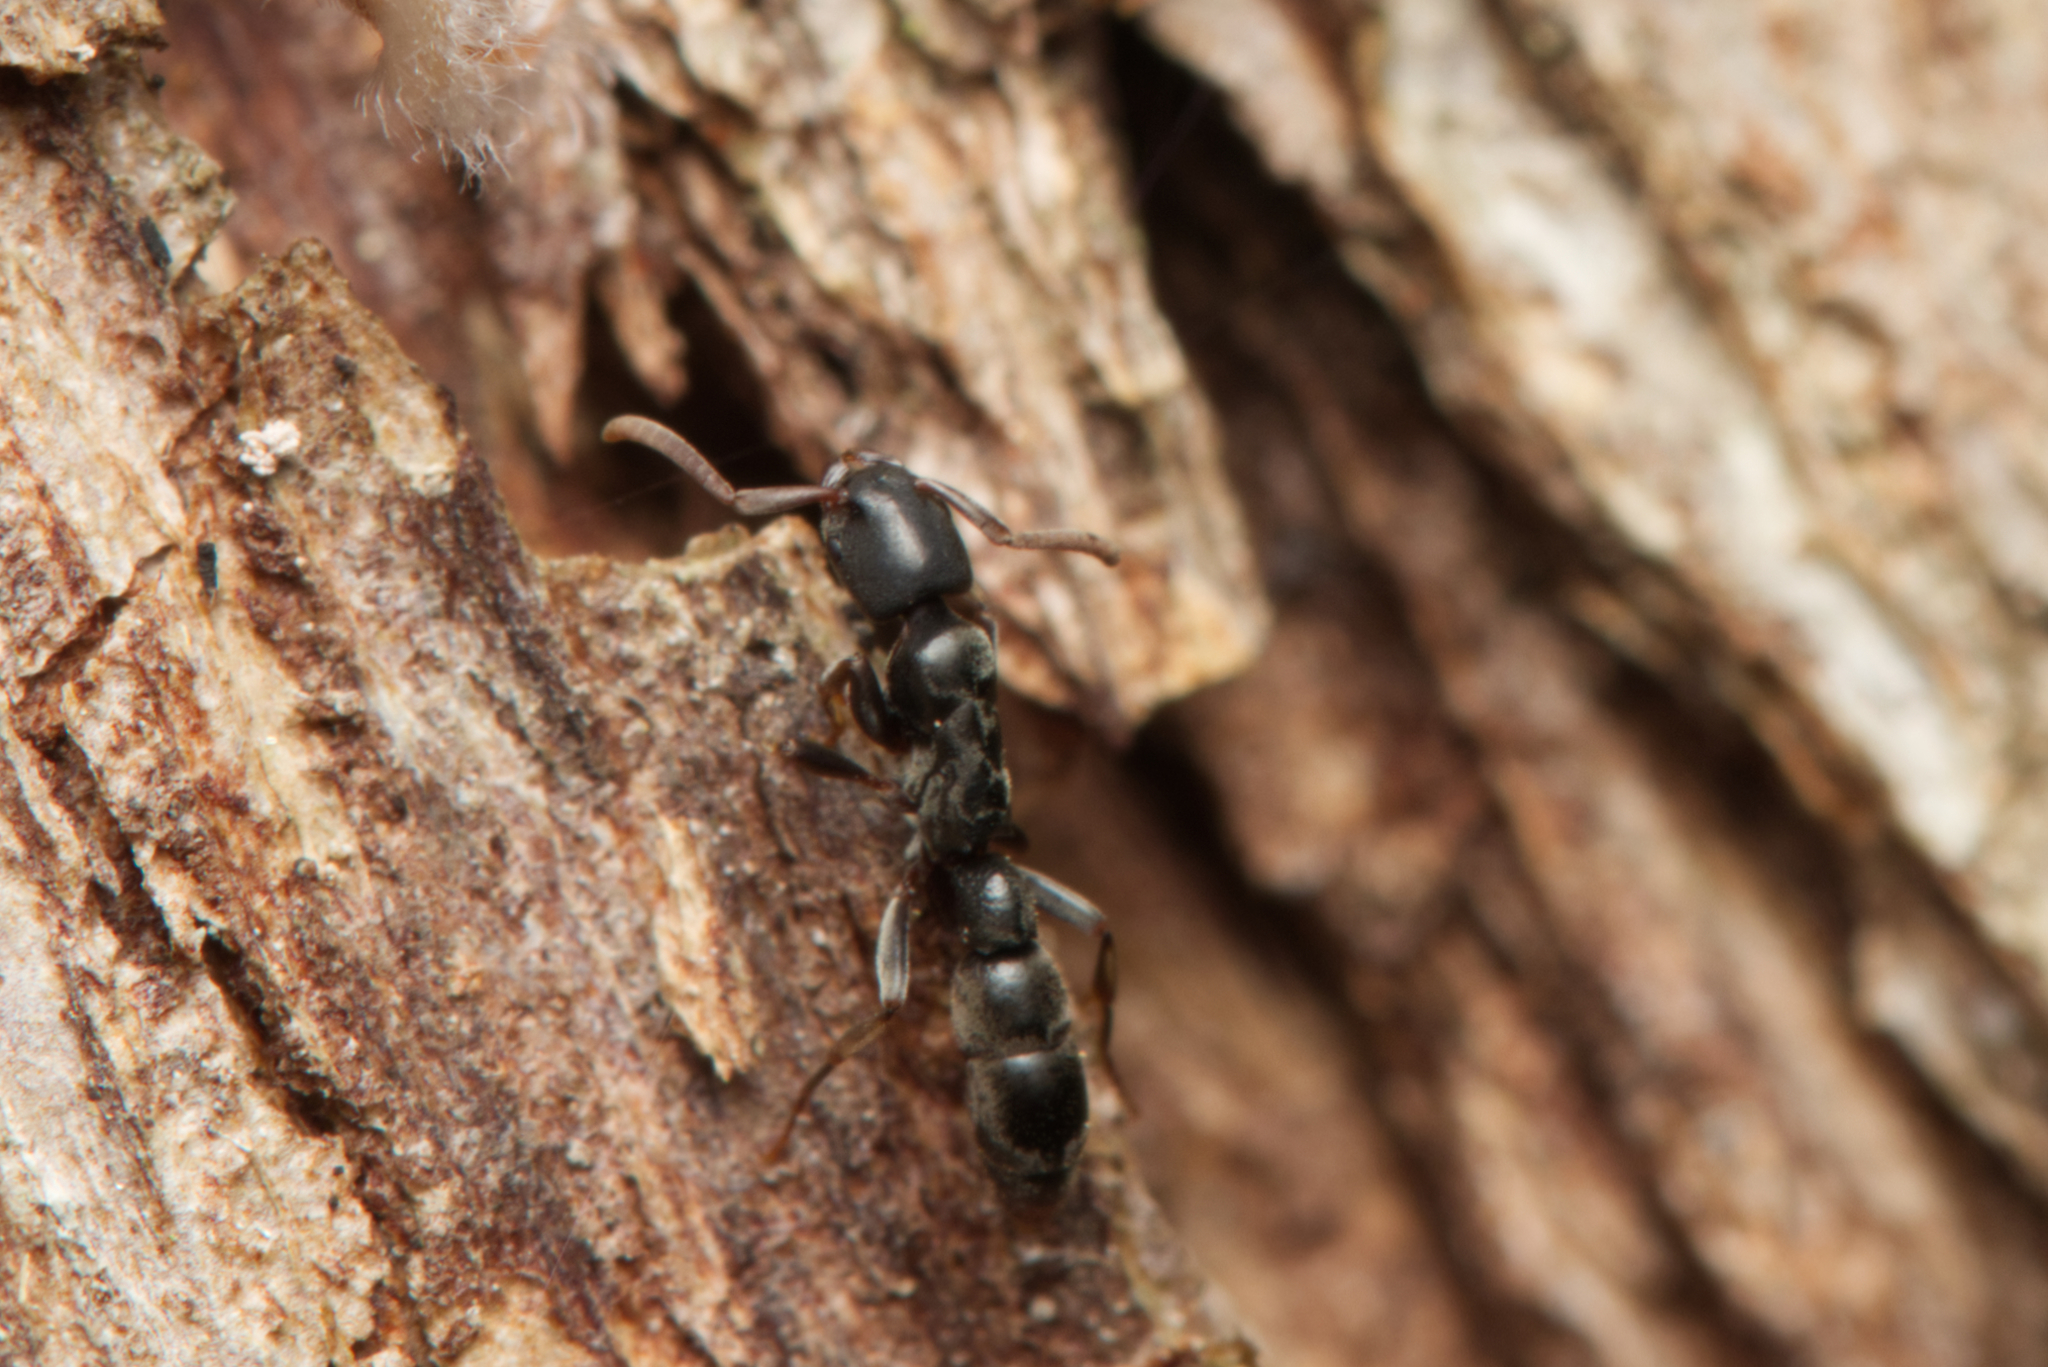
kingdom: Animalia
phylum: Arthropoda
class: Insecta
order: Hymenoptera
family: Formicidae
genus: Platythyrea
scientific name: Platythyrea parallela
